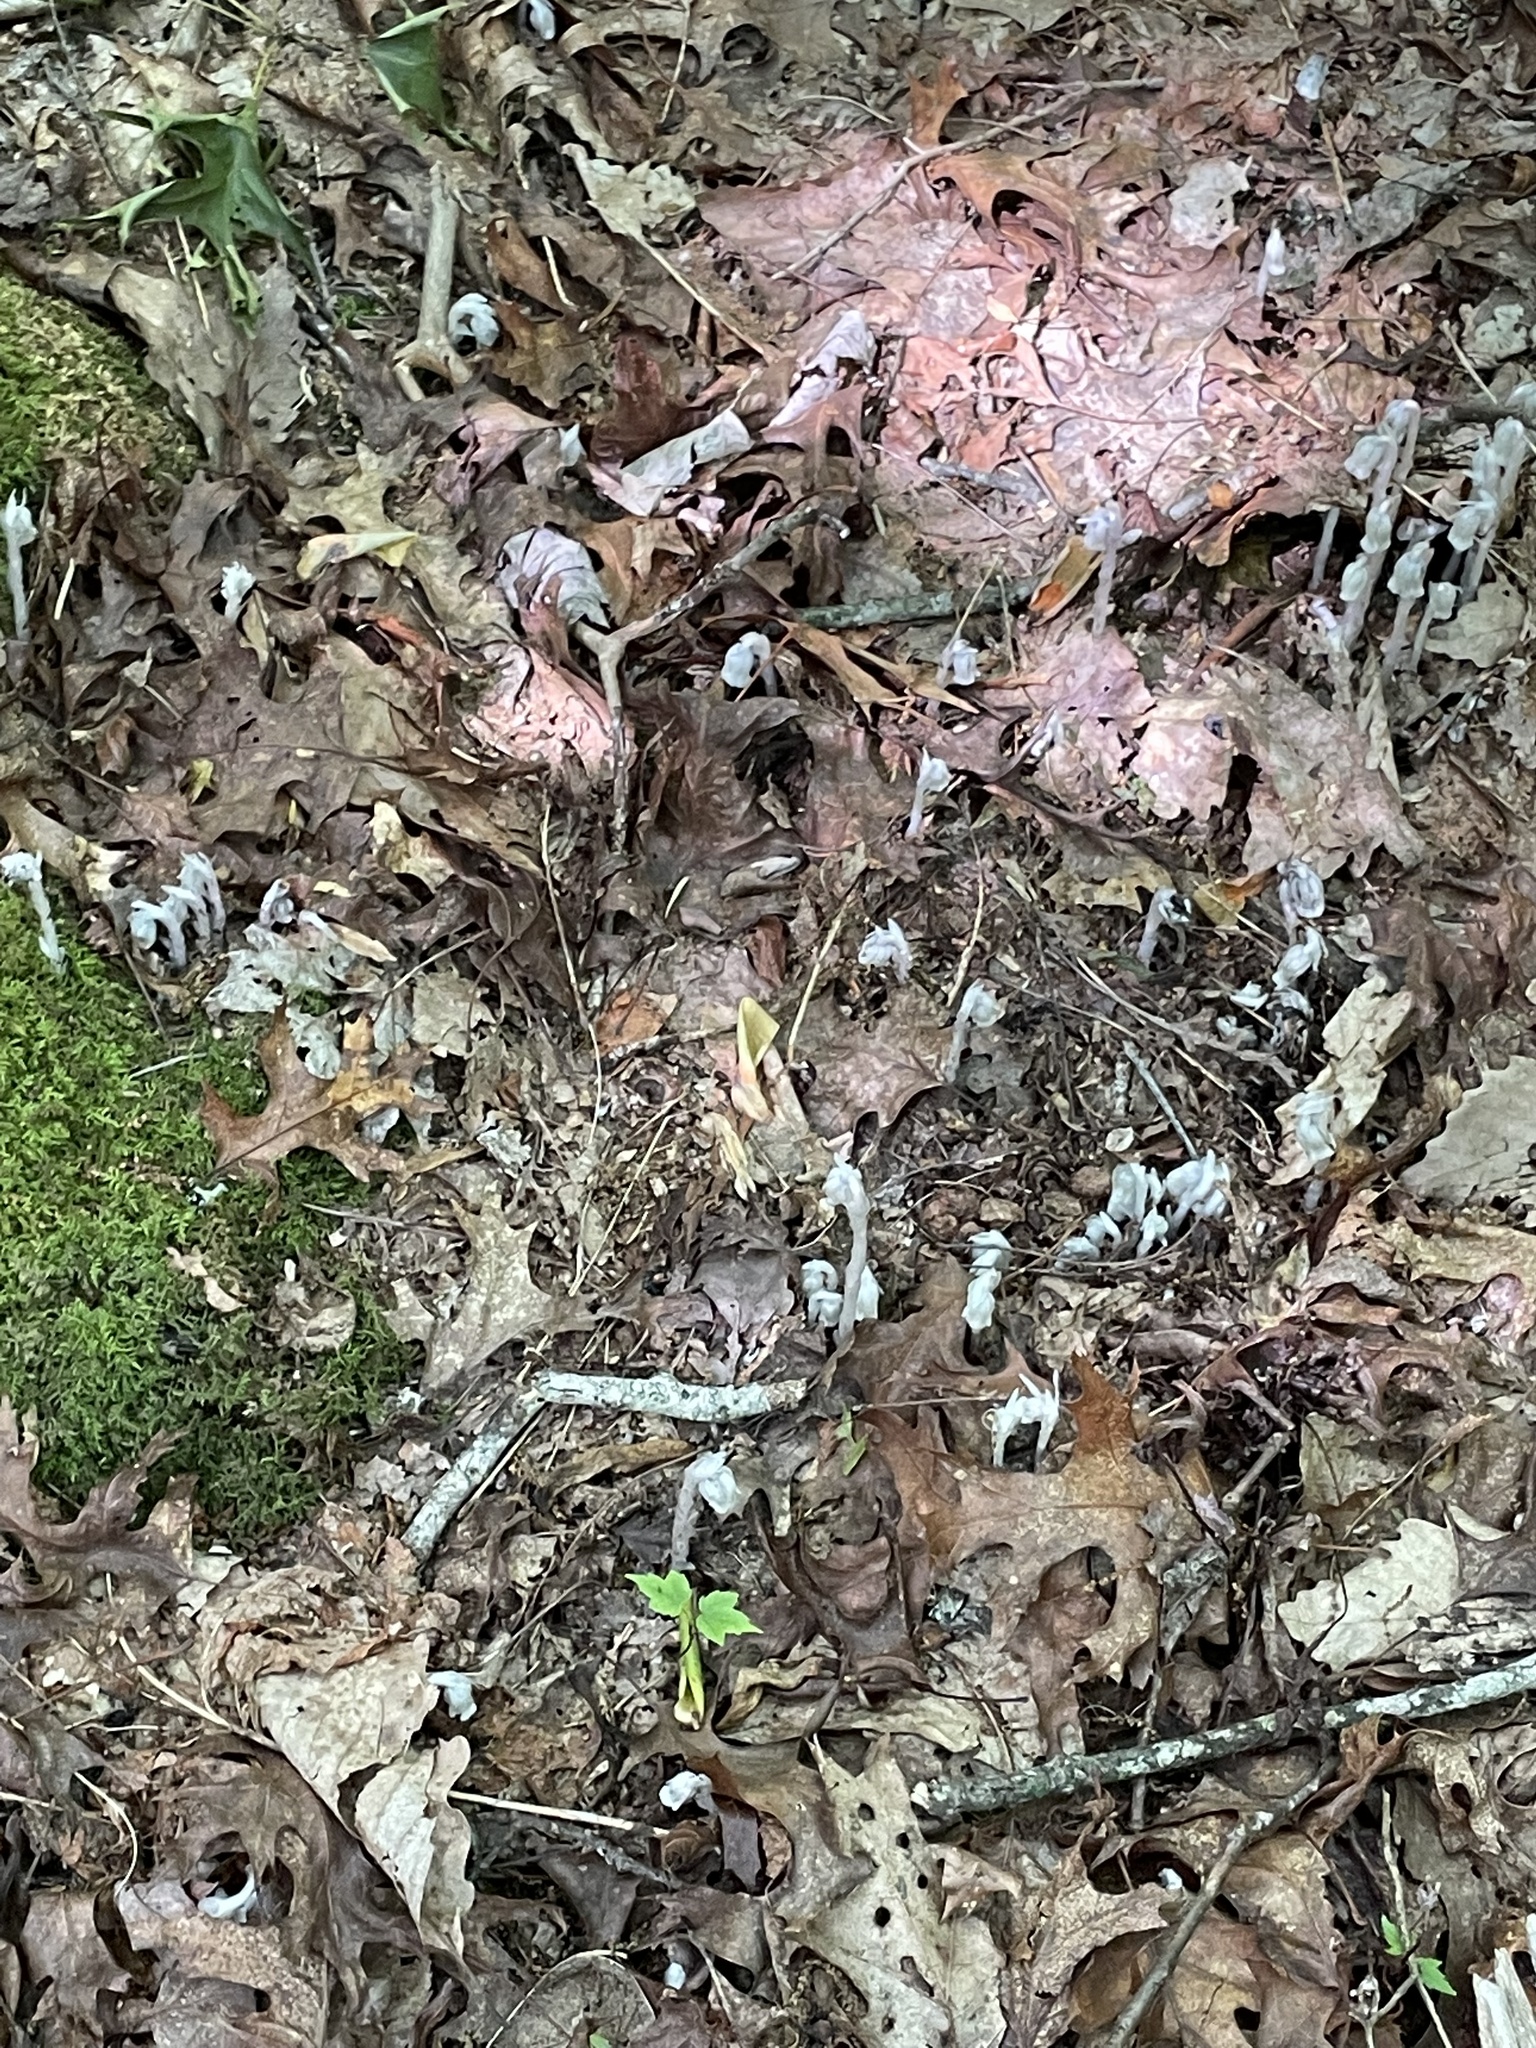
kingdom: Plantae
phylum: Tracheophyta
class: Magnoliopsida
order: Ericales
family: Ericaceae
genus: Monotropa
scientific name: Monotropa uniflora
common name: Convulsion root
